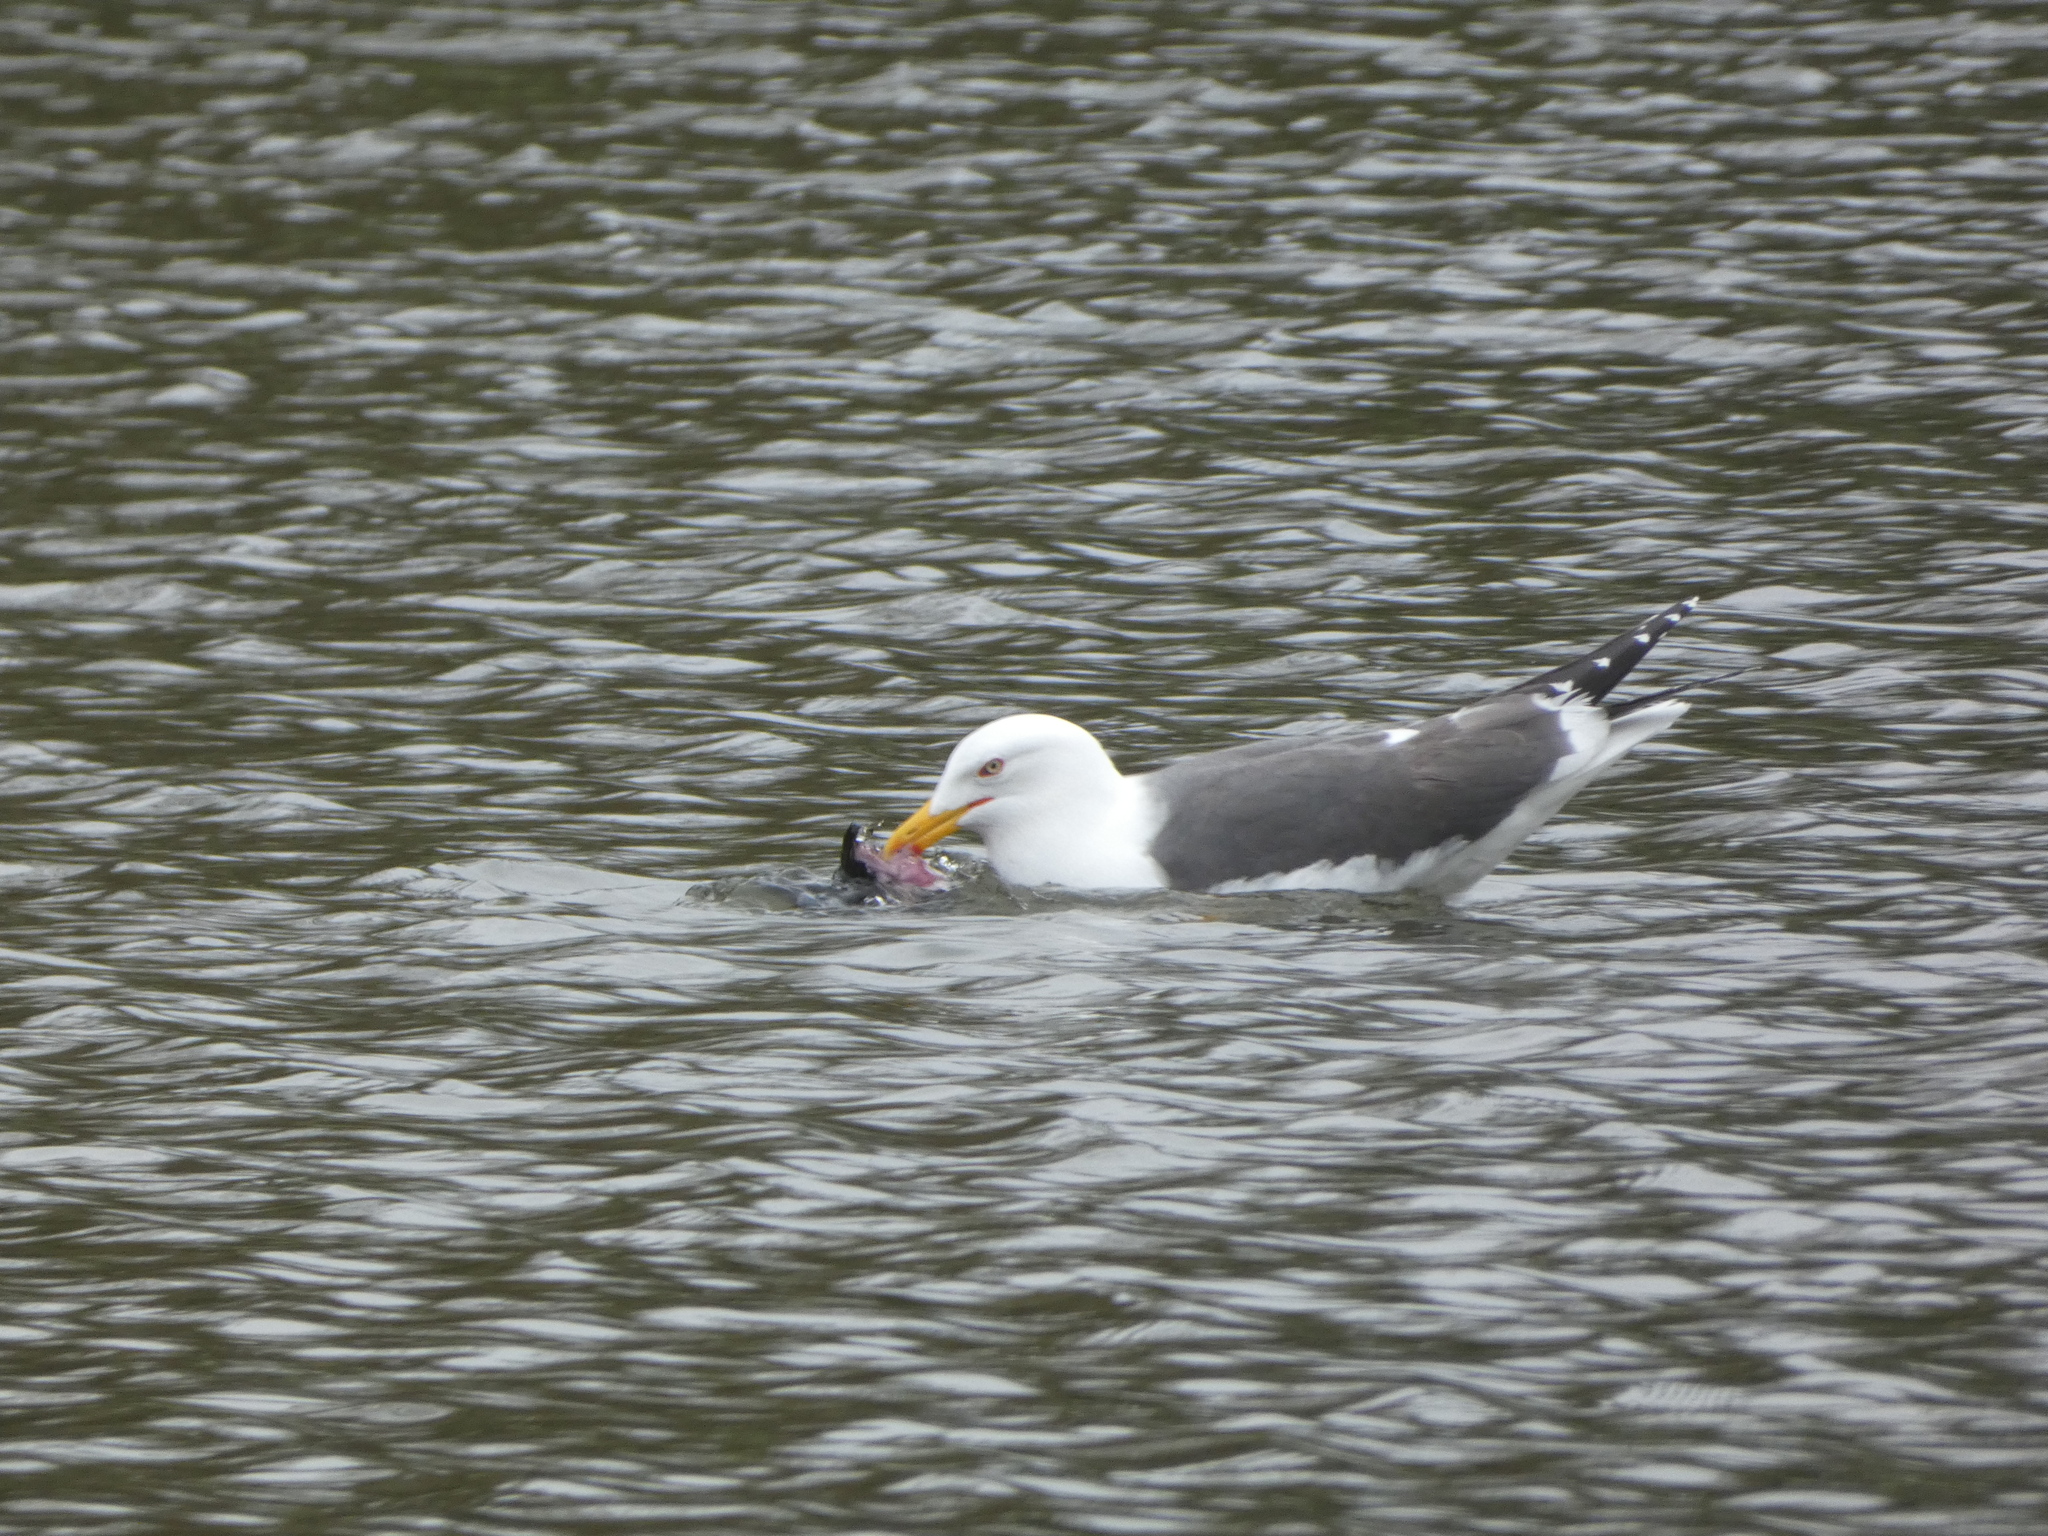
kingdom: Animalia
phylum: Chordata
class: Aves
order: Charadriiformes
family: Laridae
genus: Larus
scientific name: Larus fuscus
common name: Lesser black-backed gull
